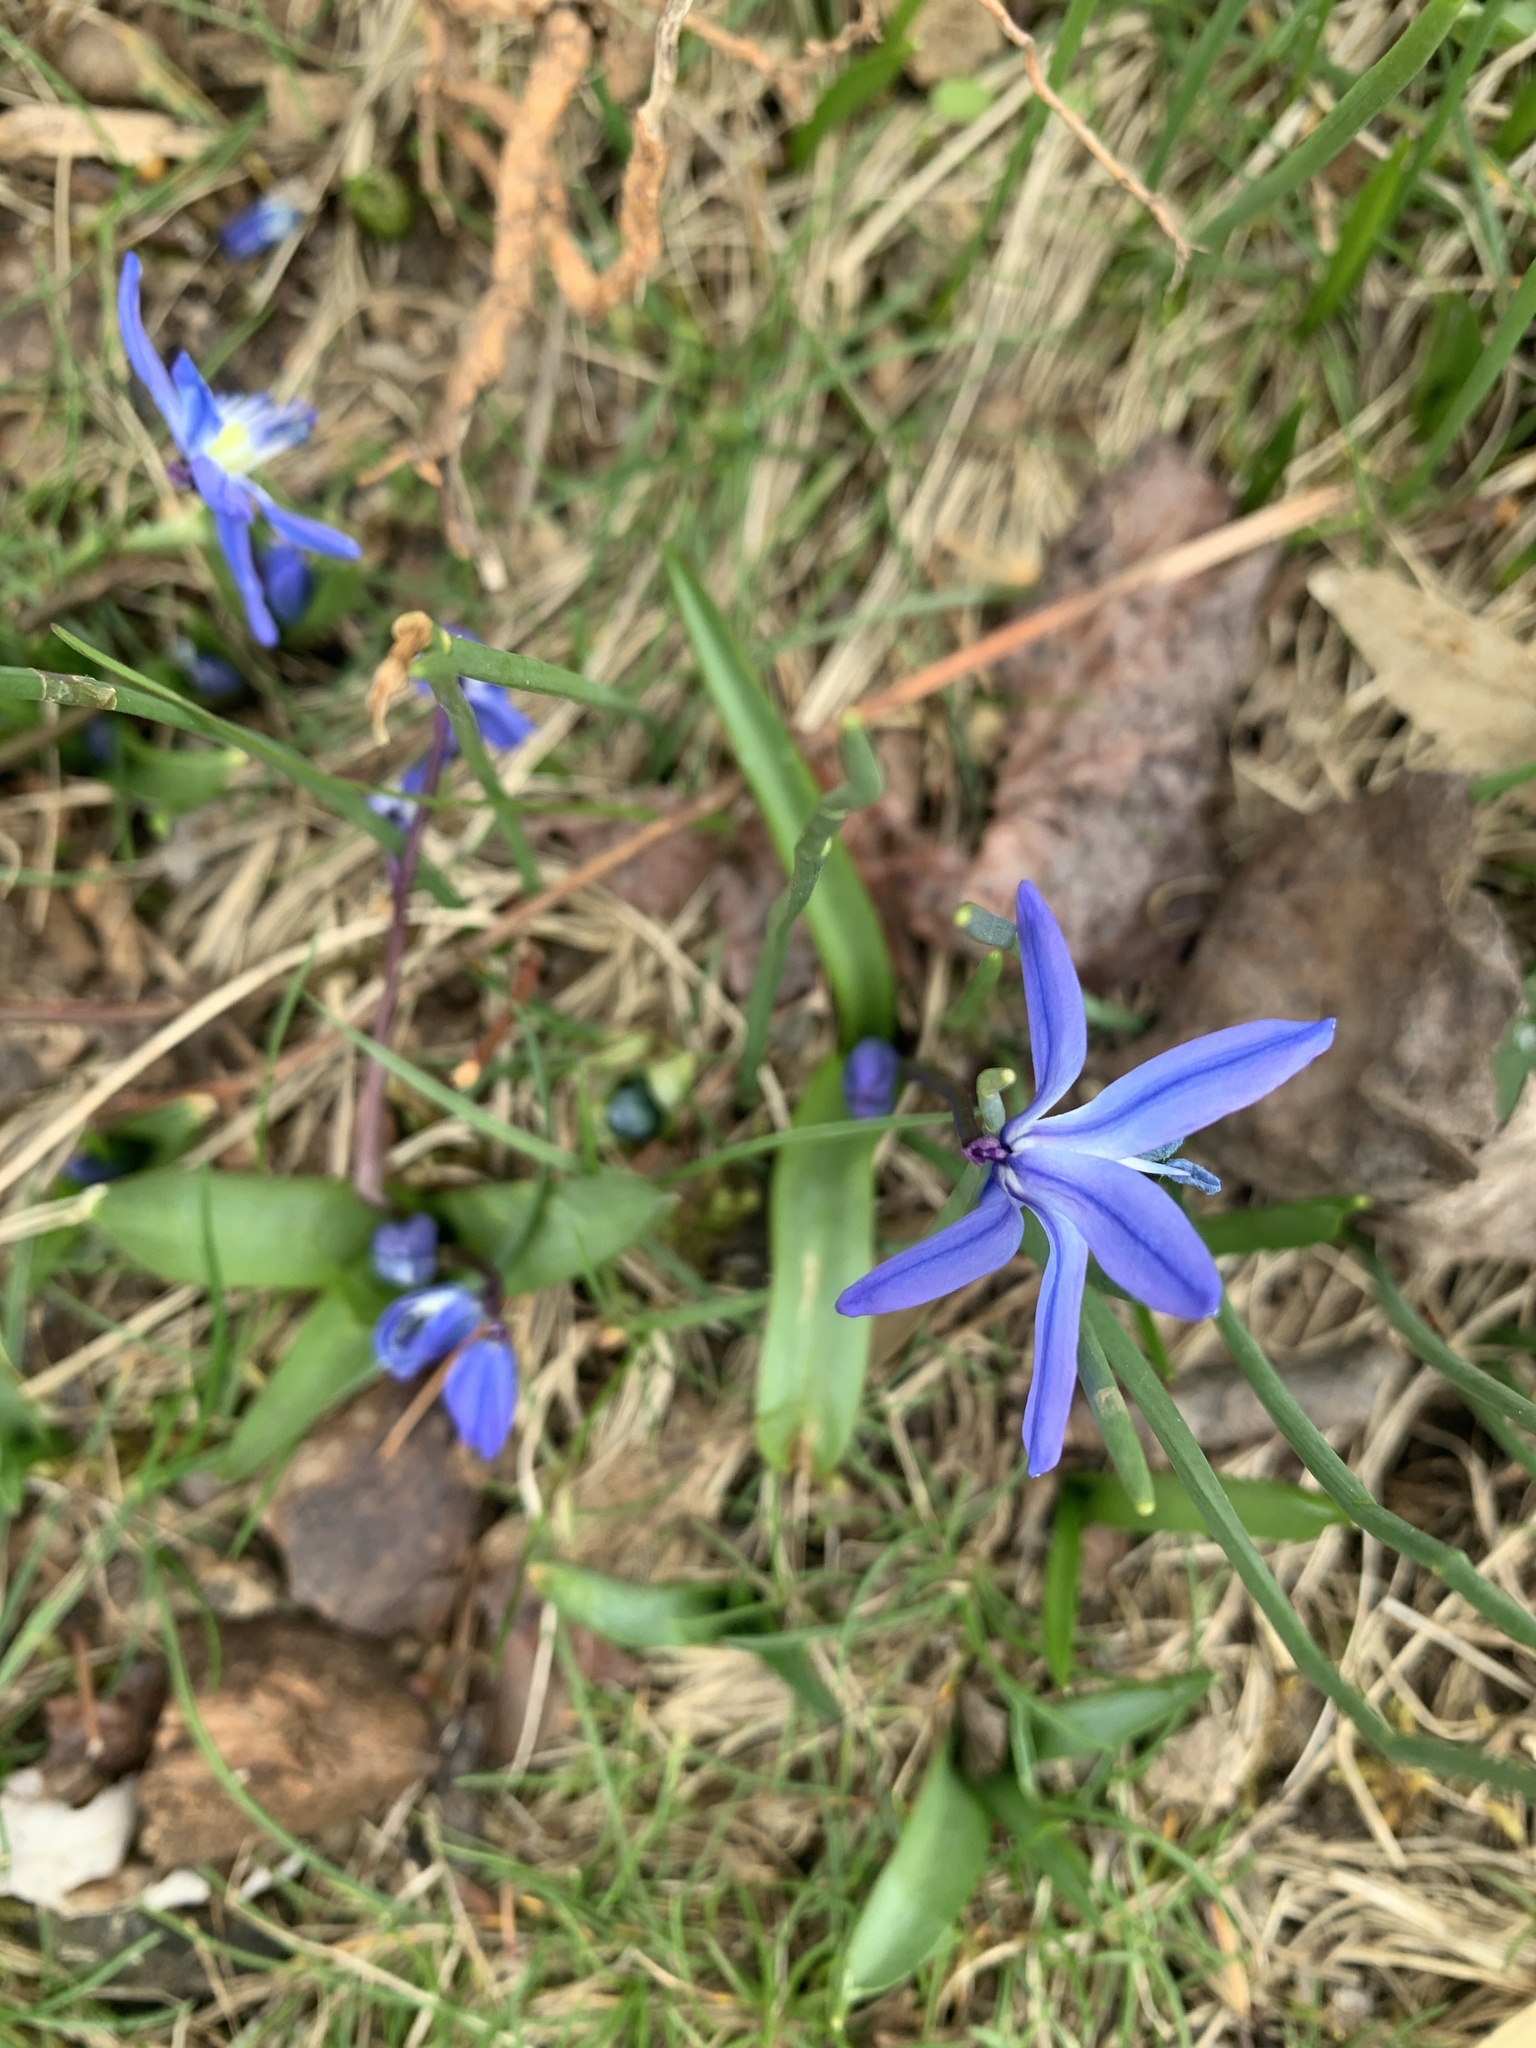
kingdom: Plantae
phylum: Tracheophyta
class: Liliopsida
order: Asparagales
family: Asparagaceae
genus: Scilla
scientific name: Scilla siberica
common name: Siberian squill
